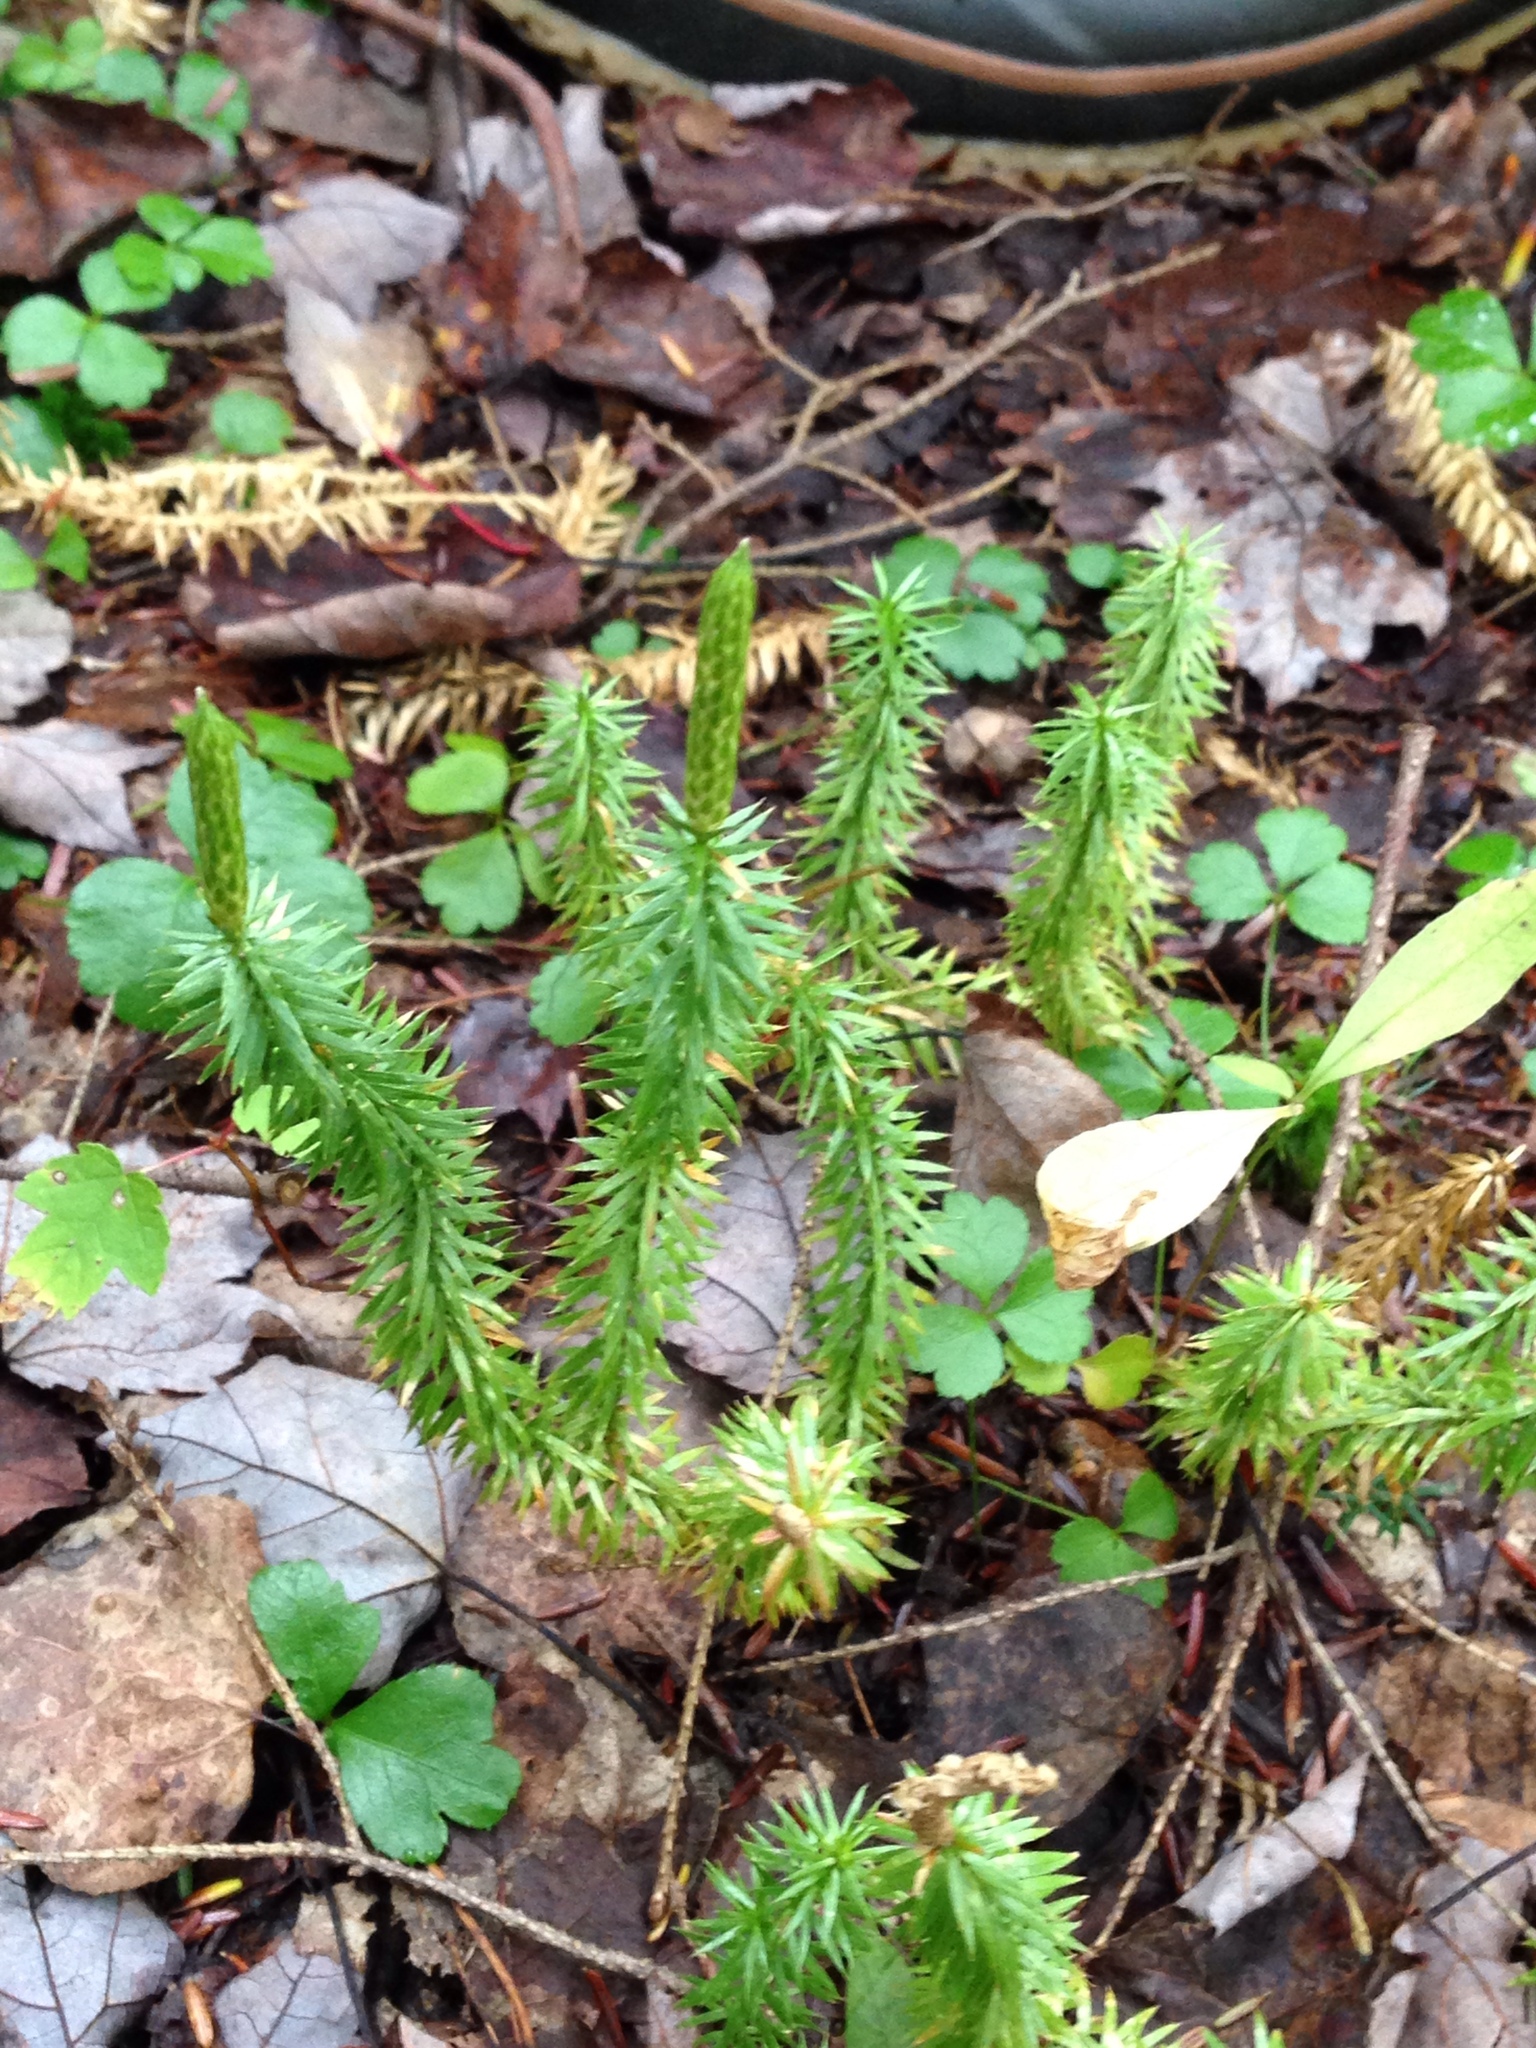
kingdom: Plantae
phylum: Tracheophyta
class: Lycopodiopsida
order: Lycopodiales
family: Lycopodiaceae
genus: Spinulum
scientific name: Spinulum annotinum
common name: Interrupted club-moss
